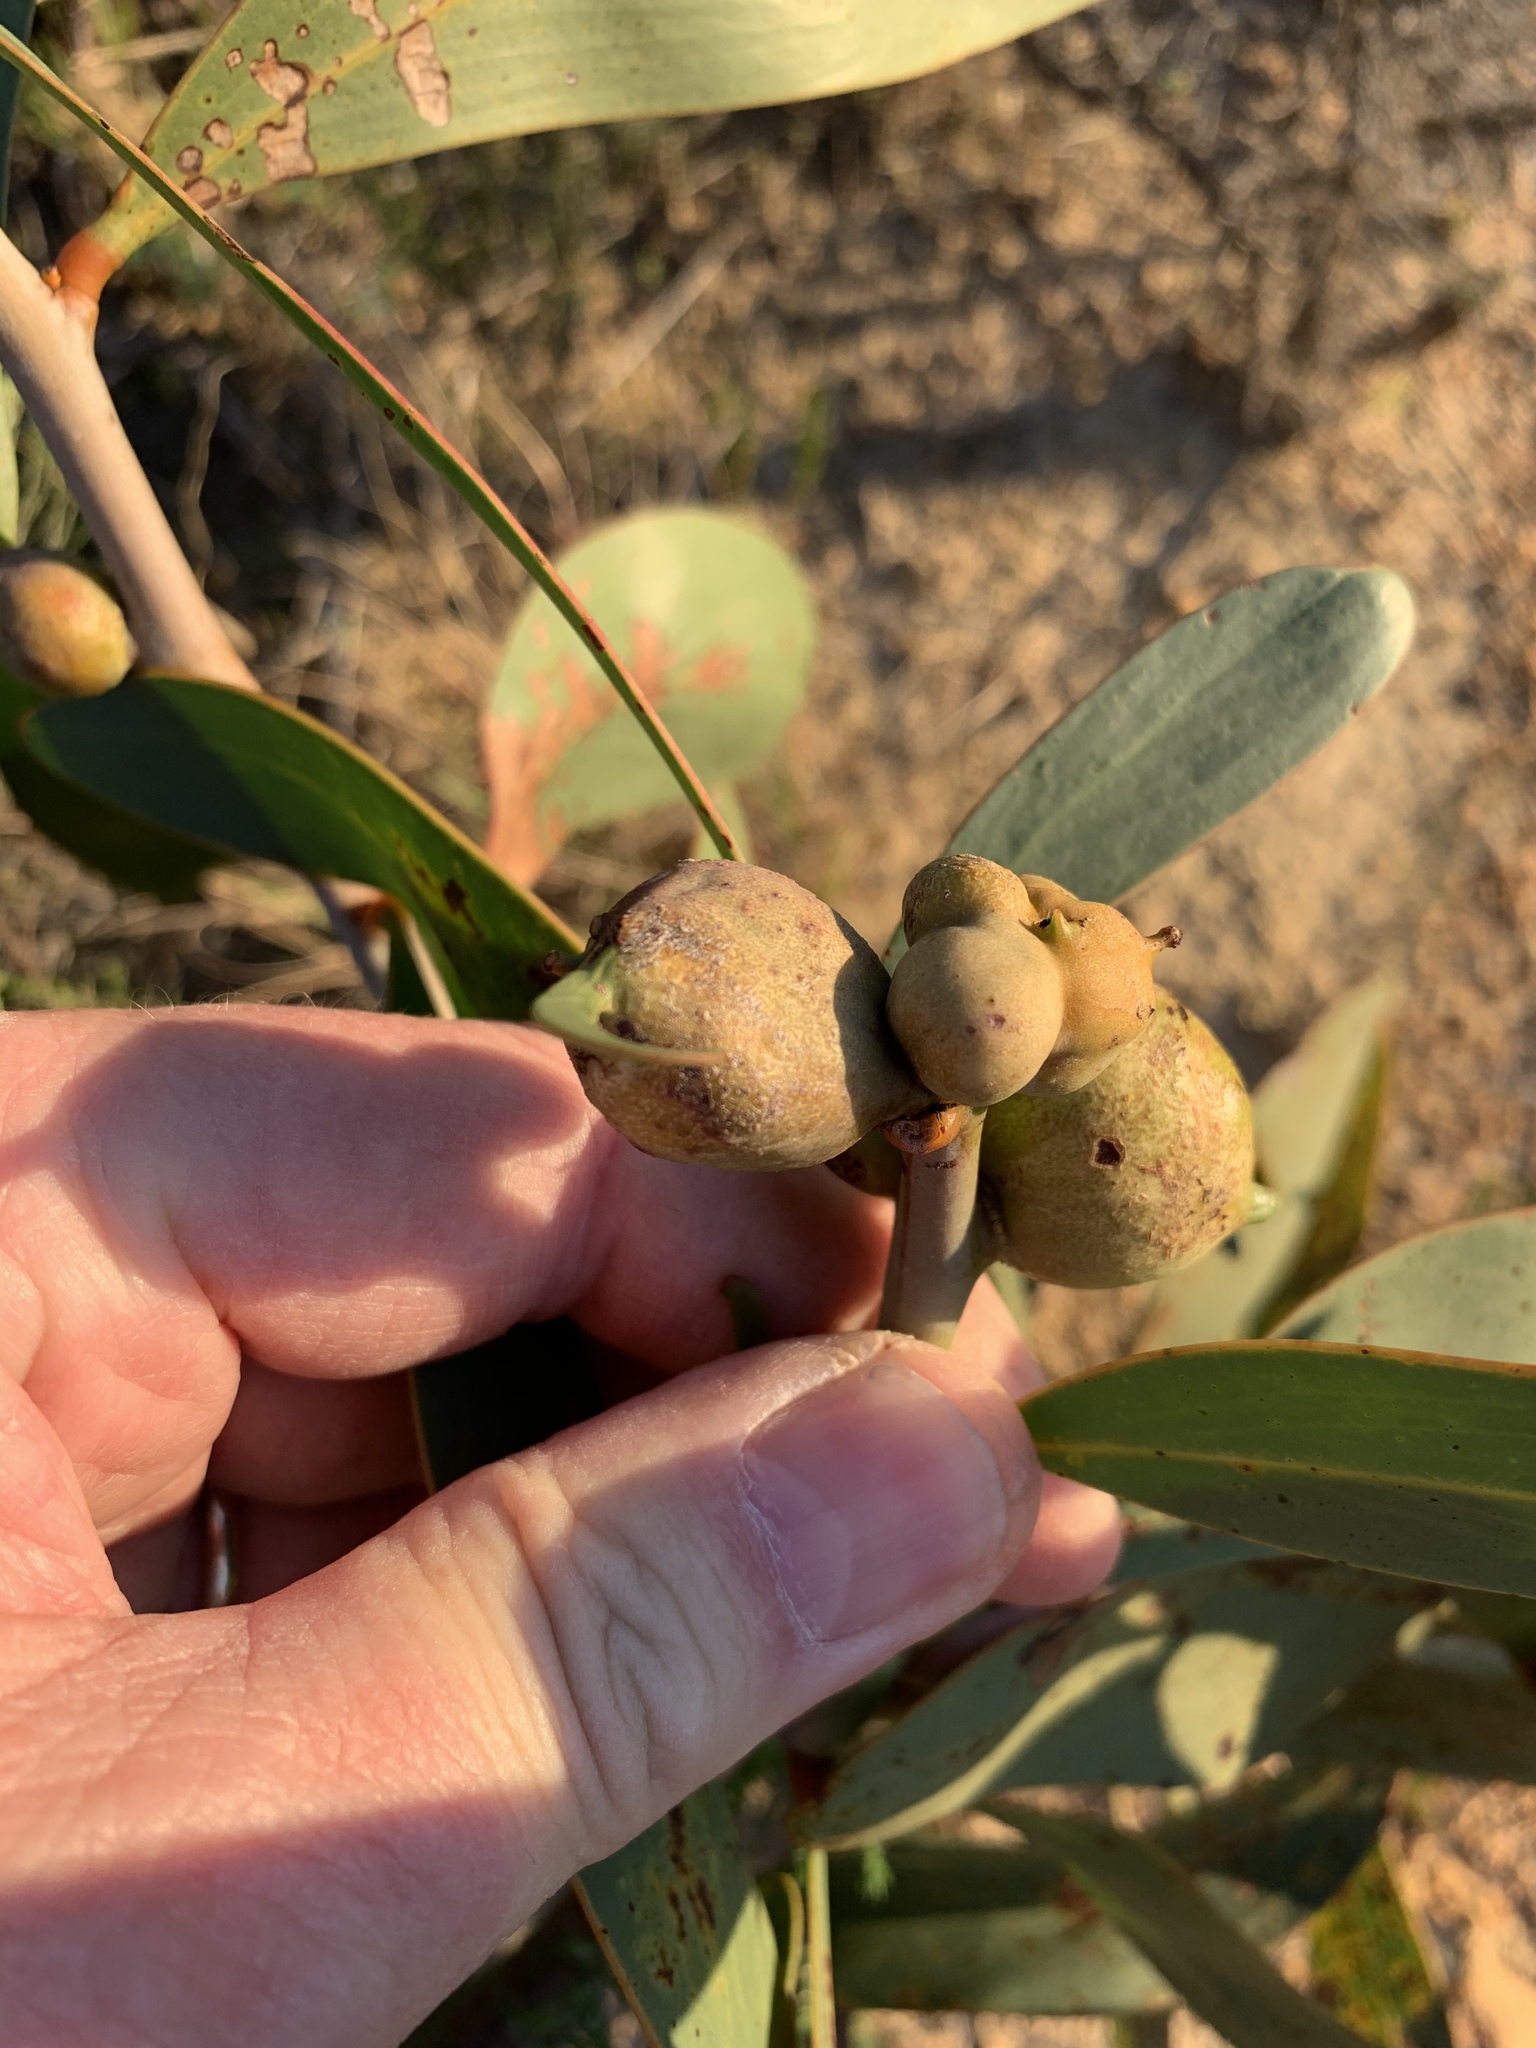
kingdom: Animalia
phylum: Arthropoda
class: Insecta
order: Hymenoptera
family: Pteromalidae
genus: Trichilogaster
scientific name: Trichilogaster signiventris
